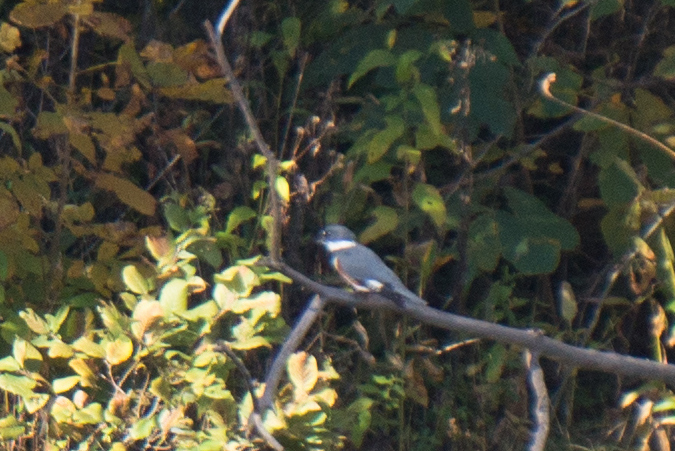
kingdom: Animalia
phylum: Chordata
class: Aves
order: Coraciiformes
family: Alcedinidae
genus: Megaceryle
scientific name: Megaceryle alcyon
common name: Belted kingfisher
